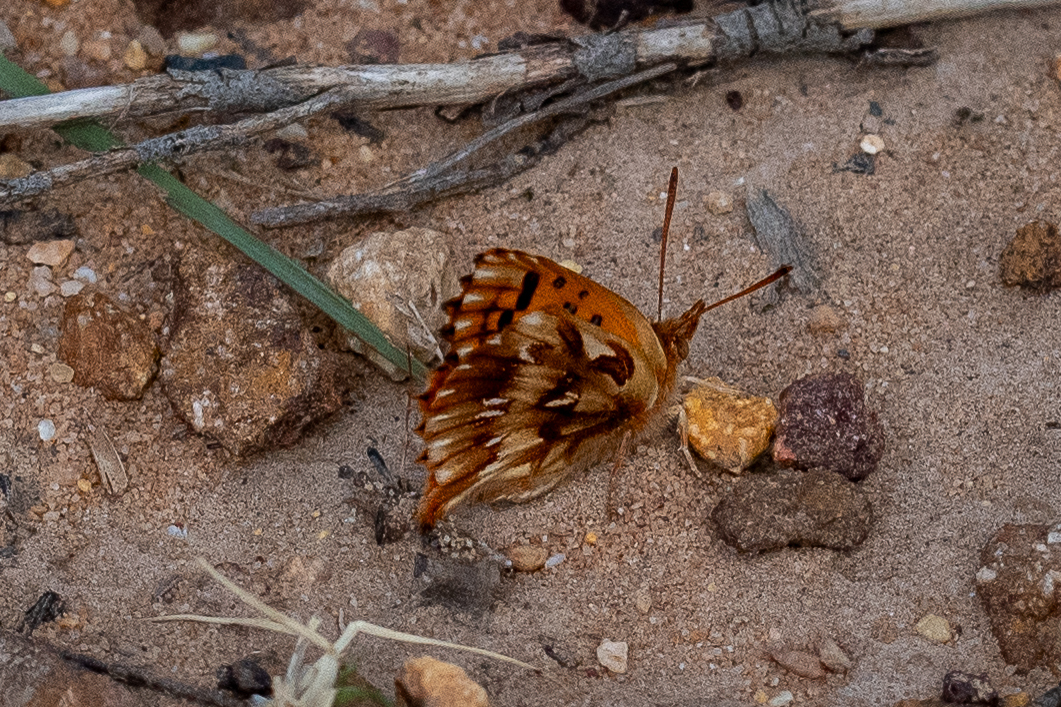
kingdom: Animalia
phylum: Arthropoda
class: Insecta
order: Lepidoptera
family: Lycaenidae
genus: Chrysoritis
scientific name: Chrysoritis
